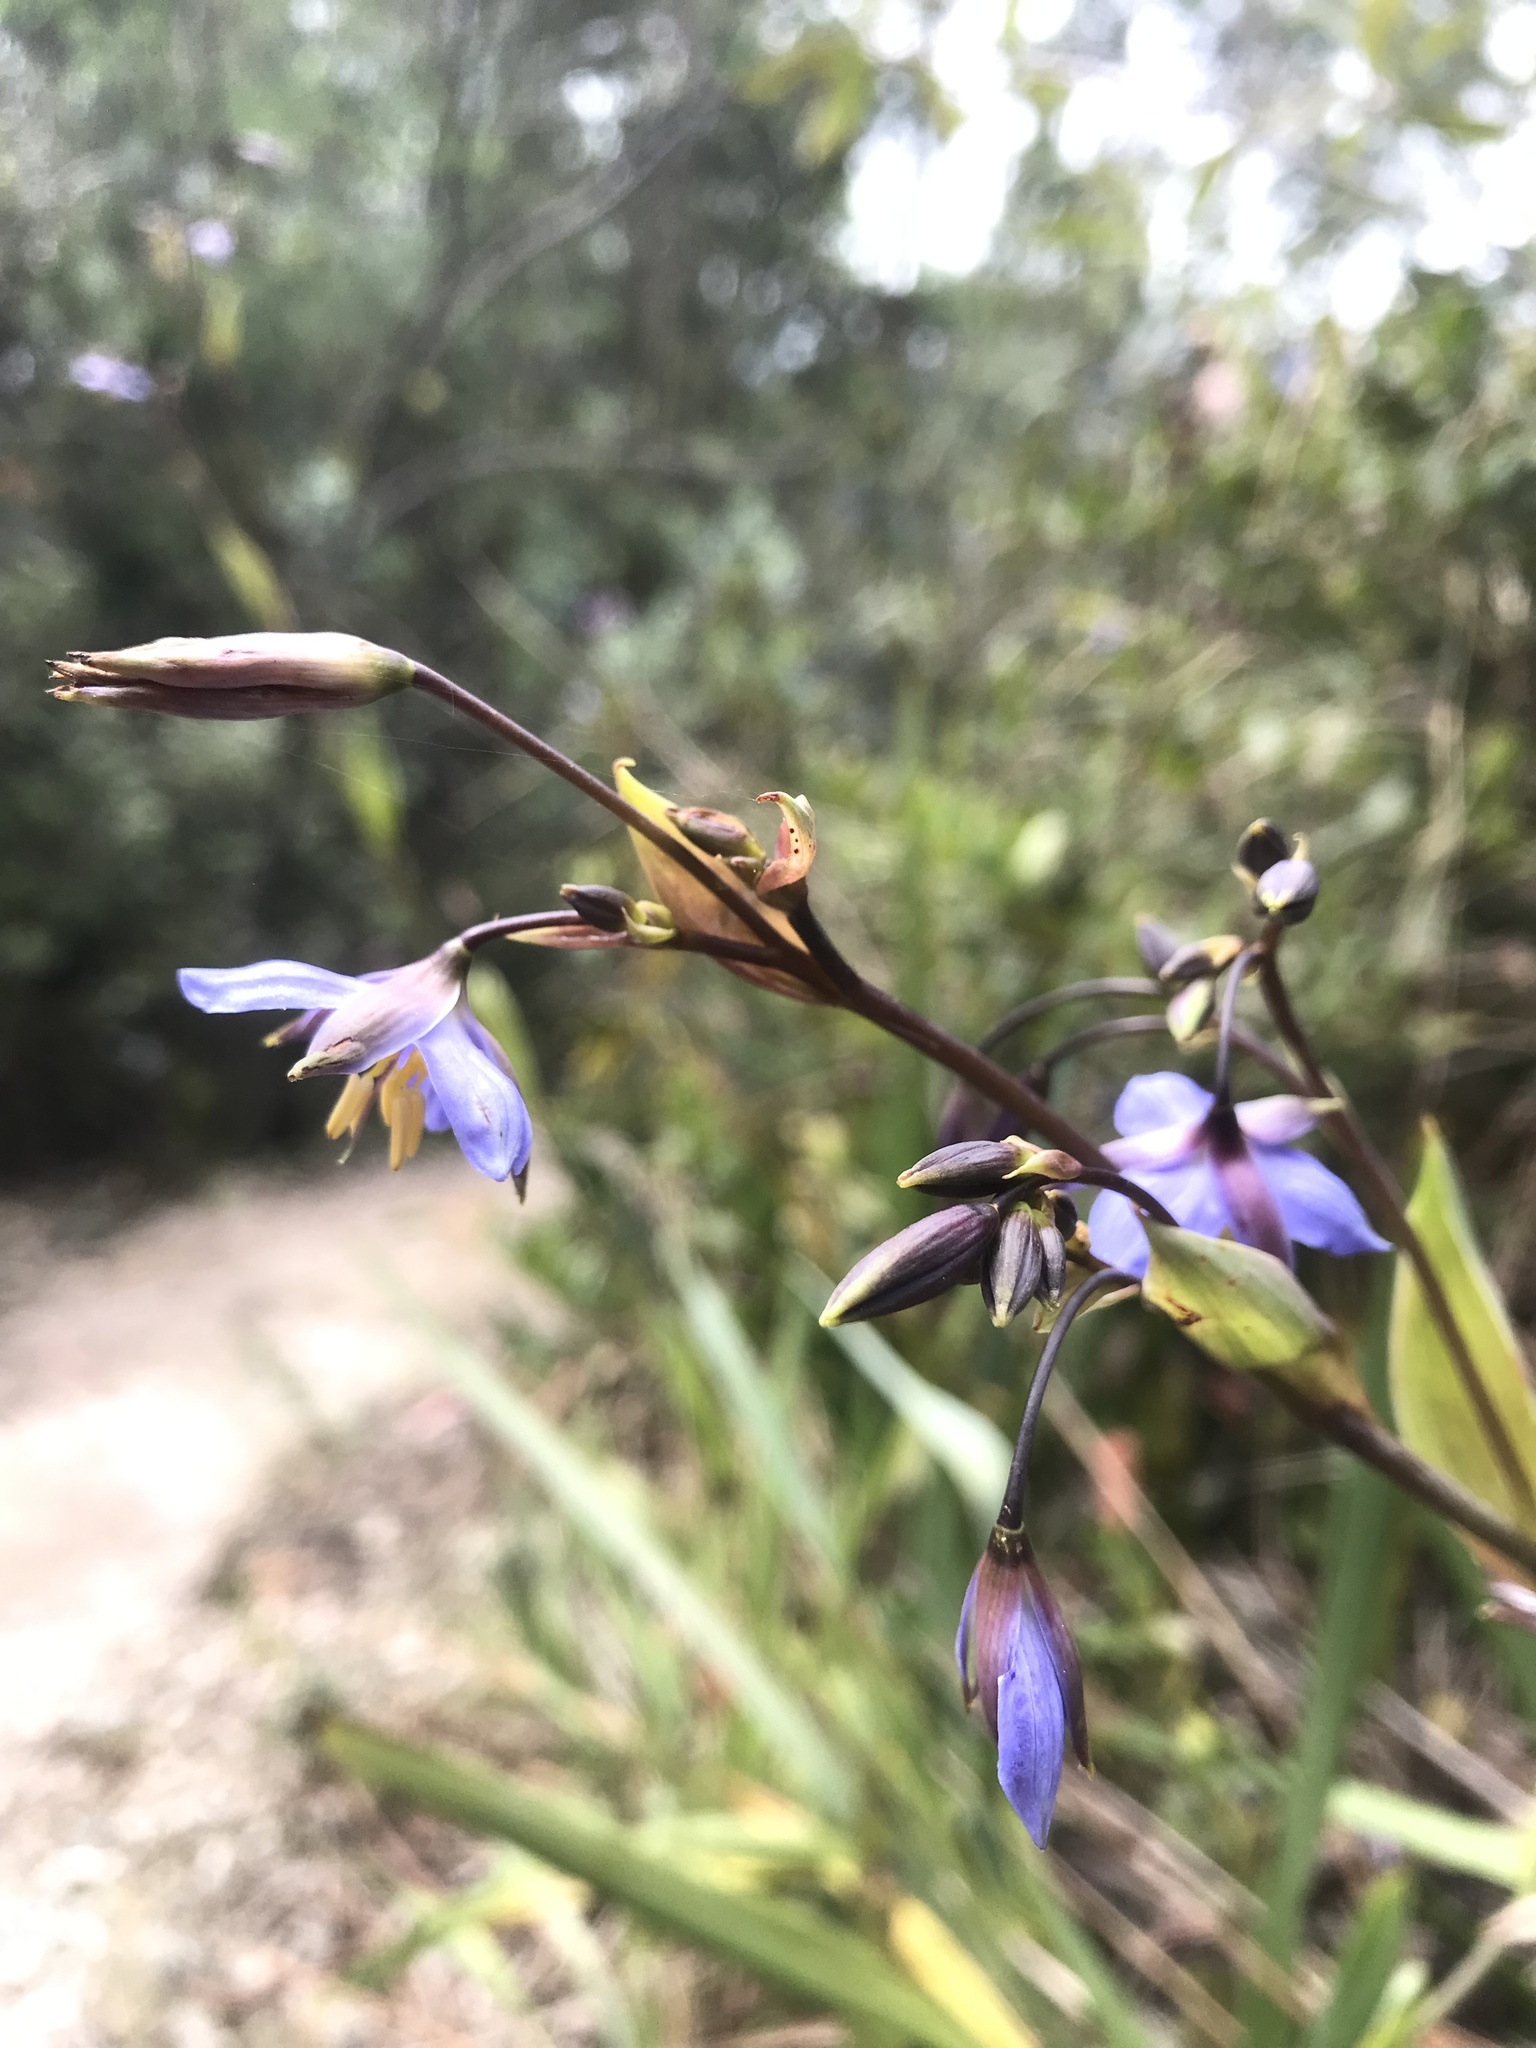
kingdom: Plantae
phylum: Tracheophyta
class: Liliopsida
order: Asparagales
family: Asphodelaceae
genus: Excremis
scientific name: Excremis coarctata
